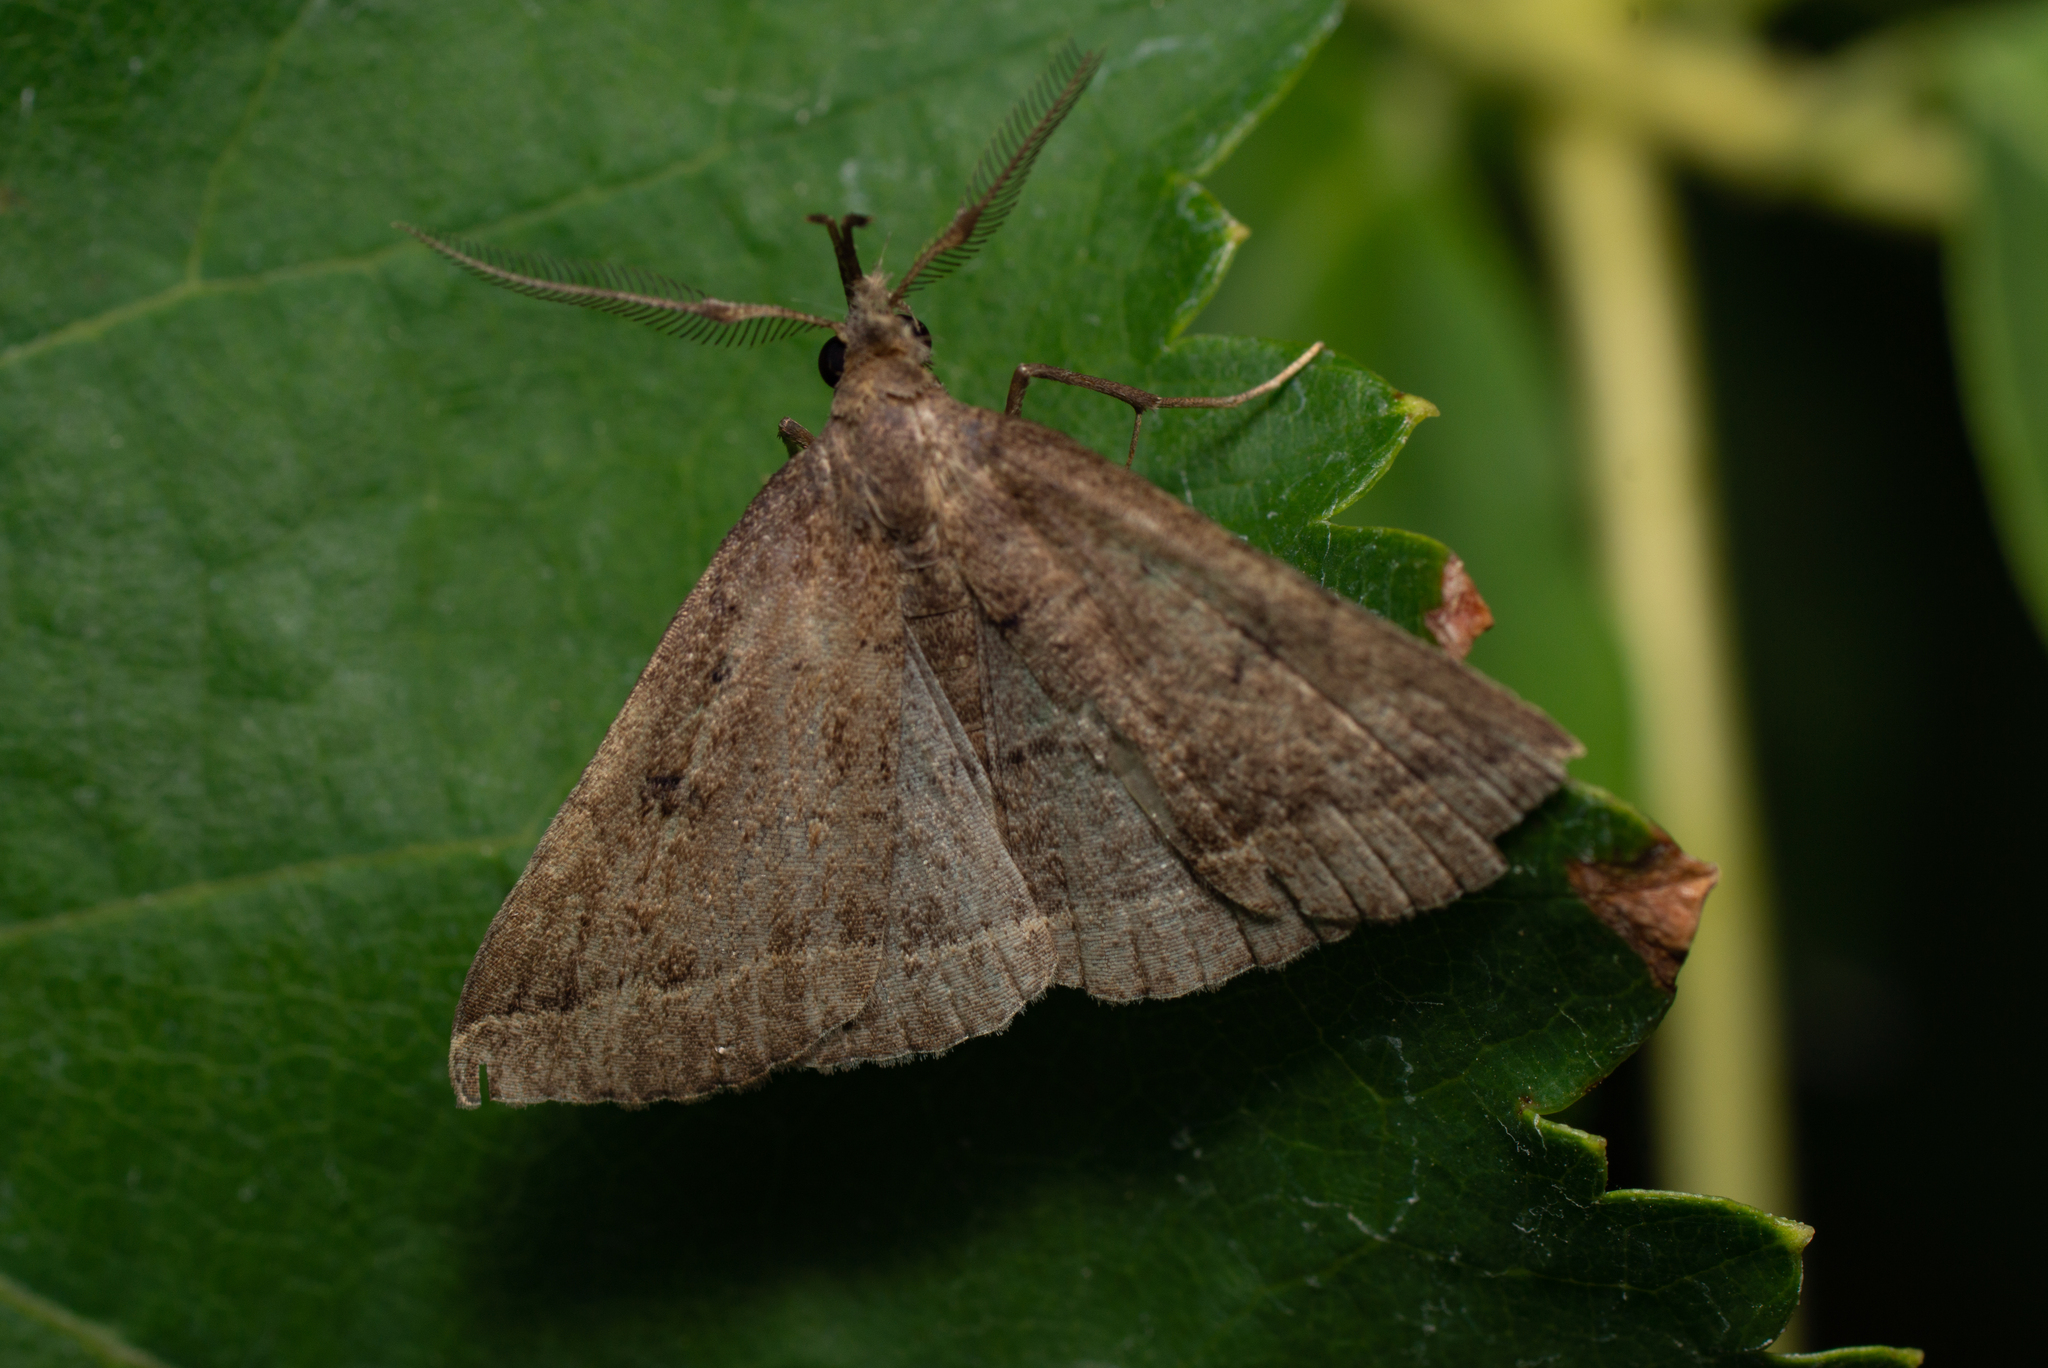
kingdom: Animalia
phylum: Arthropoda
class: Insecta
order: Lepidoptera
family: Erebidae
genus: Pechipogo
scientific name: Pechipogo plumigeralis
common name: Plumed fan-foot
